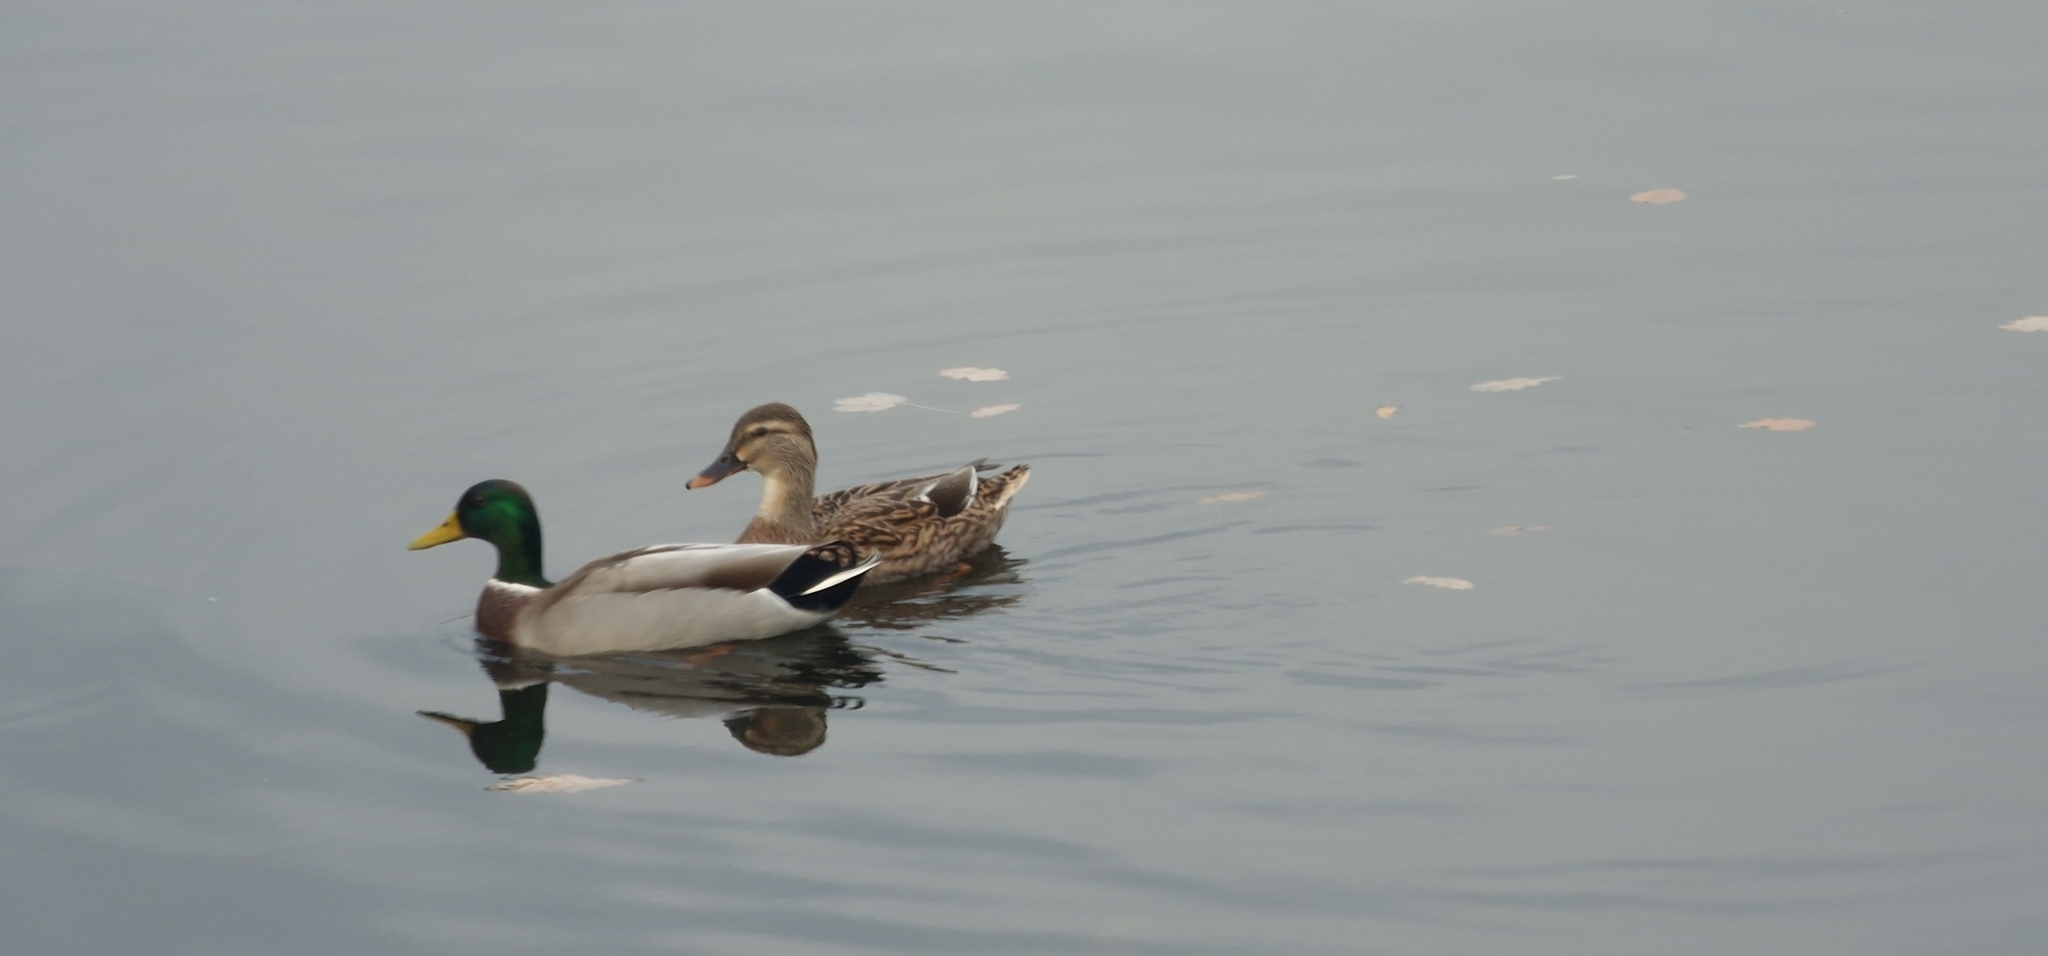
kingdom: Animalia
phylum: Chordata
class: Aves
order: Anseriformes
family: Anatidae
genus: Anas
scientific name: Anas platyrhynchos
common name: Mallard
